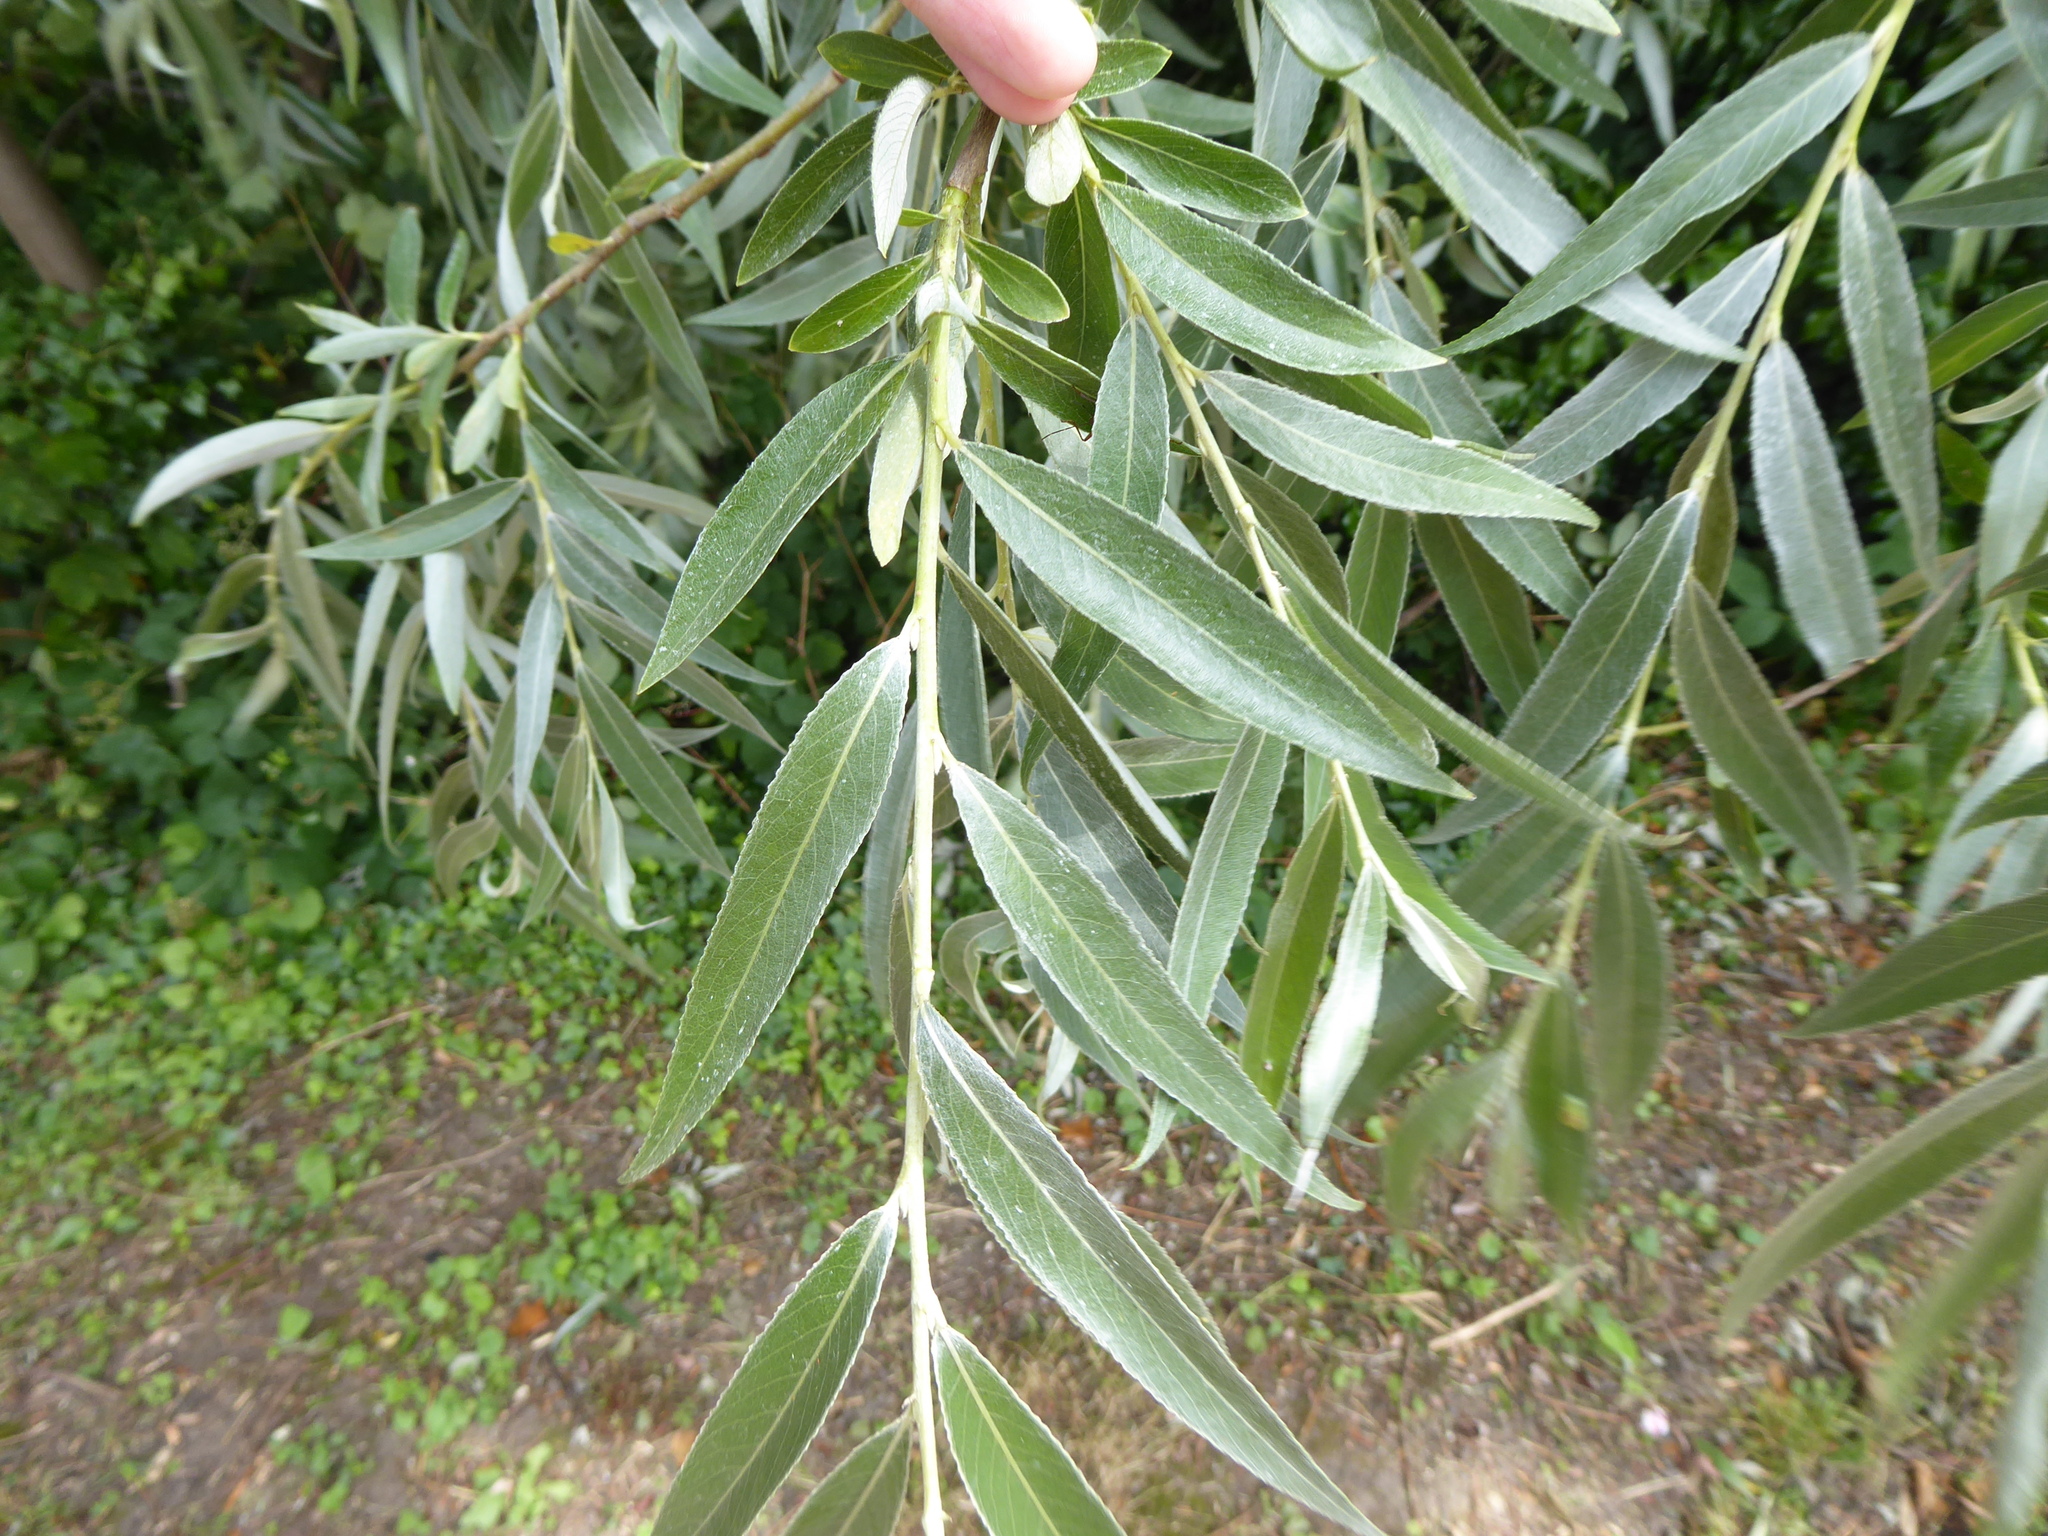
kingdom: Plantae
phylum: Tracheophyta
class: Magnoliopsida
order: Malpighiales
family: Salicaceae
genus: Salix
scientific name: Salix alba
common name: White willow
